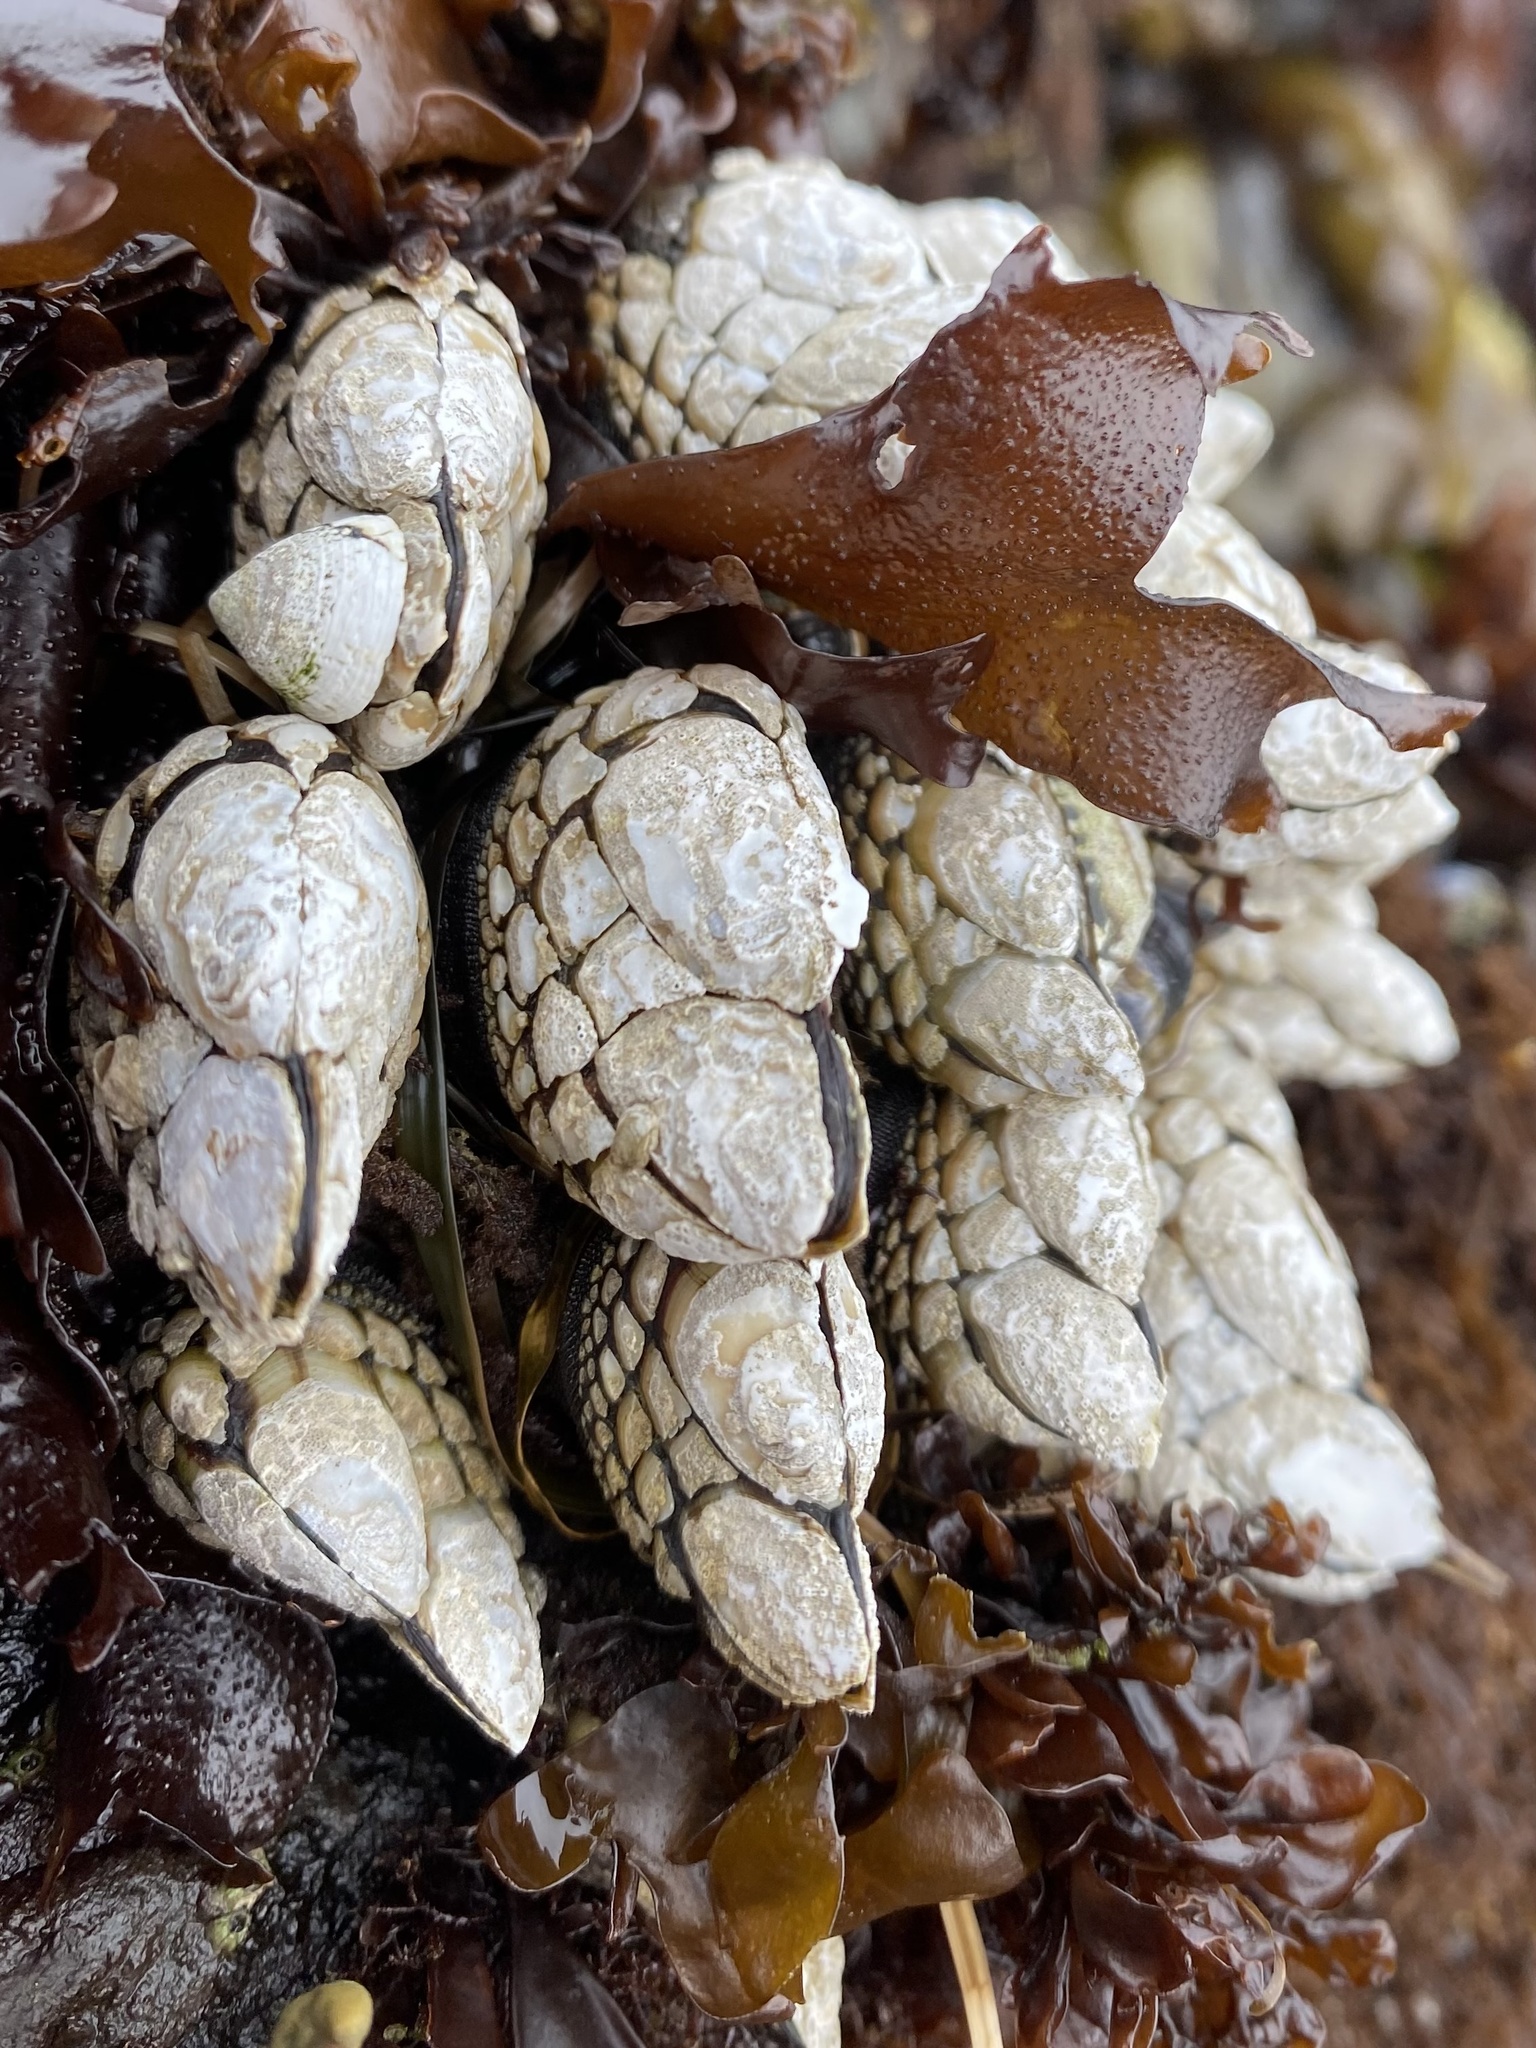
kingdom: Animalia
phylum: Arthropoda
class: Maxillopoda
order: Pedunculata
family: Pollicipedidae
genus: Pollicipes
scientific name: Pollicipes polymerus
